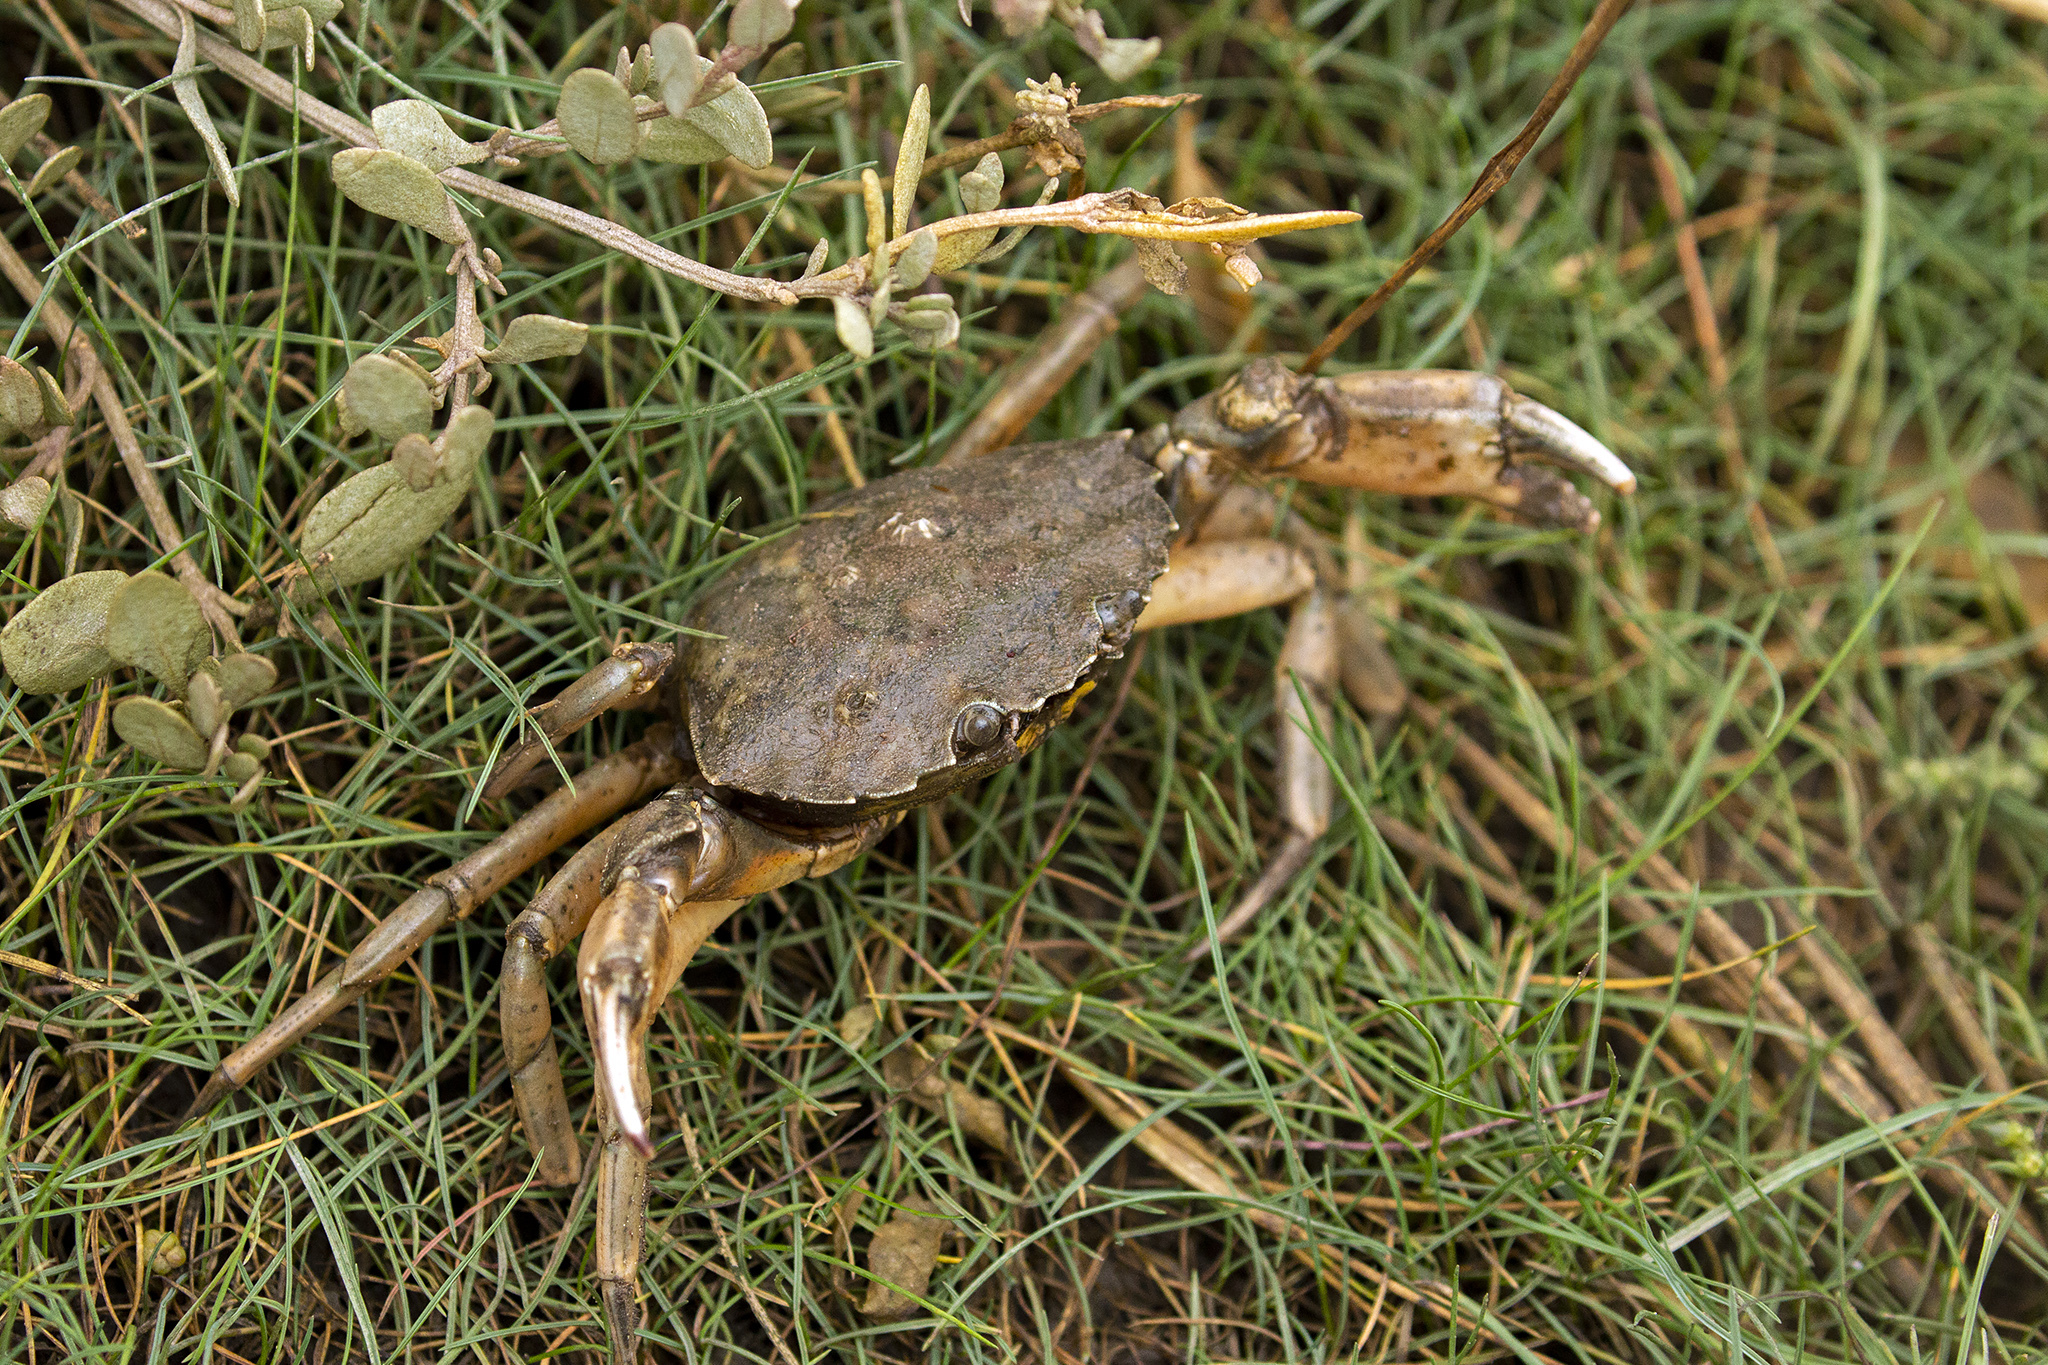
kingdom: Animalia
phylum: Arthropoda
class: Malacostraca
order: Decapoda
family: Carcinidae
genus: Carcinus
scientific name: Carcinus maenas
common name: European green crab
